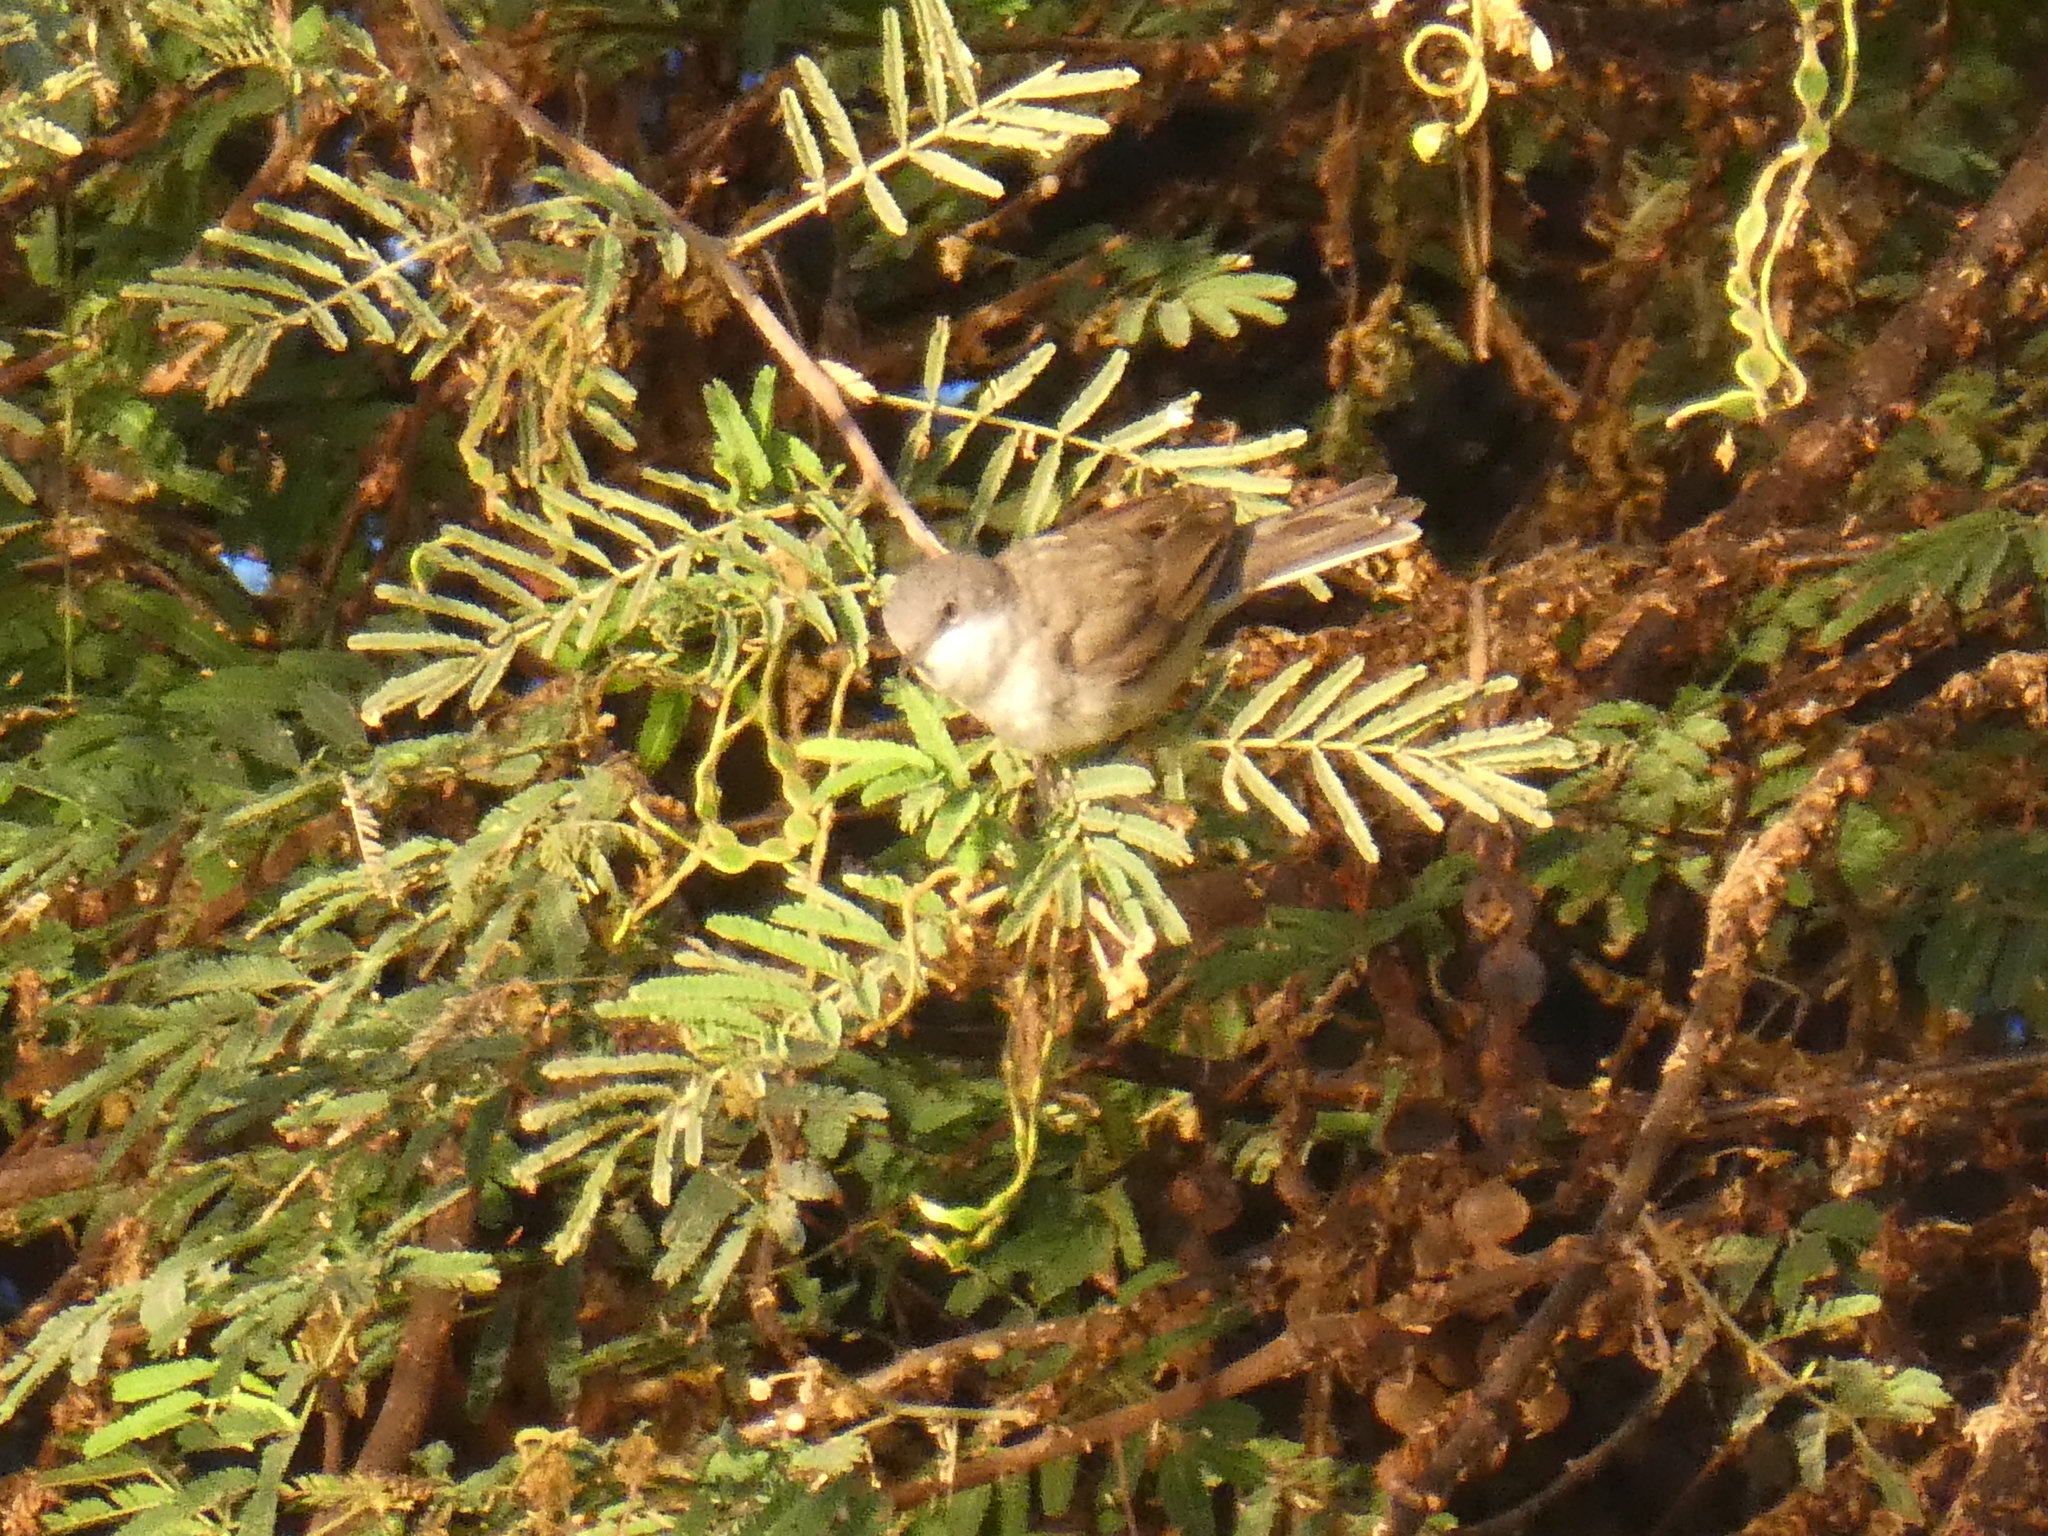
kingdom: Animalia
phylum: Chordata
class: Aves
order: Passeriformes
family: Sylviidae
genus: Sylvia
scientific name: Sylvia curruca
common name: Lesser whitethroat
